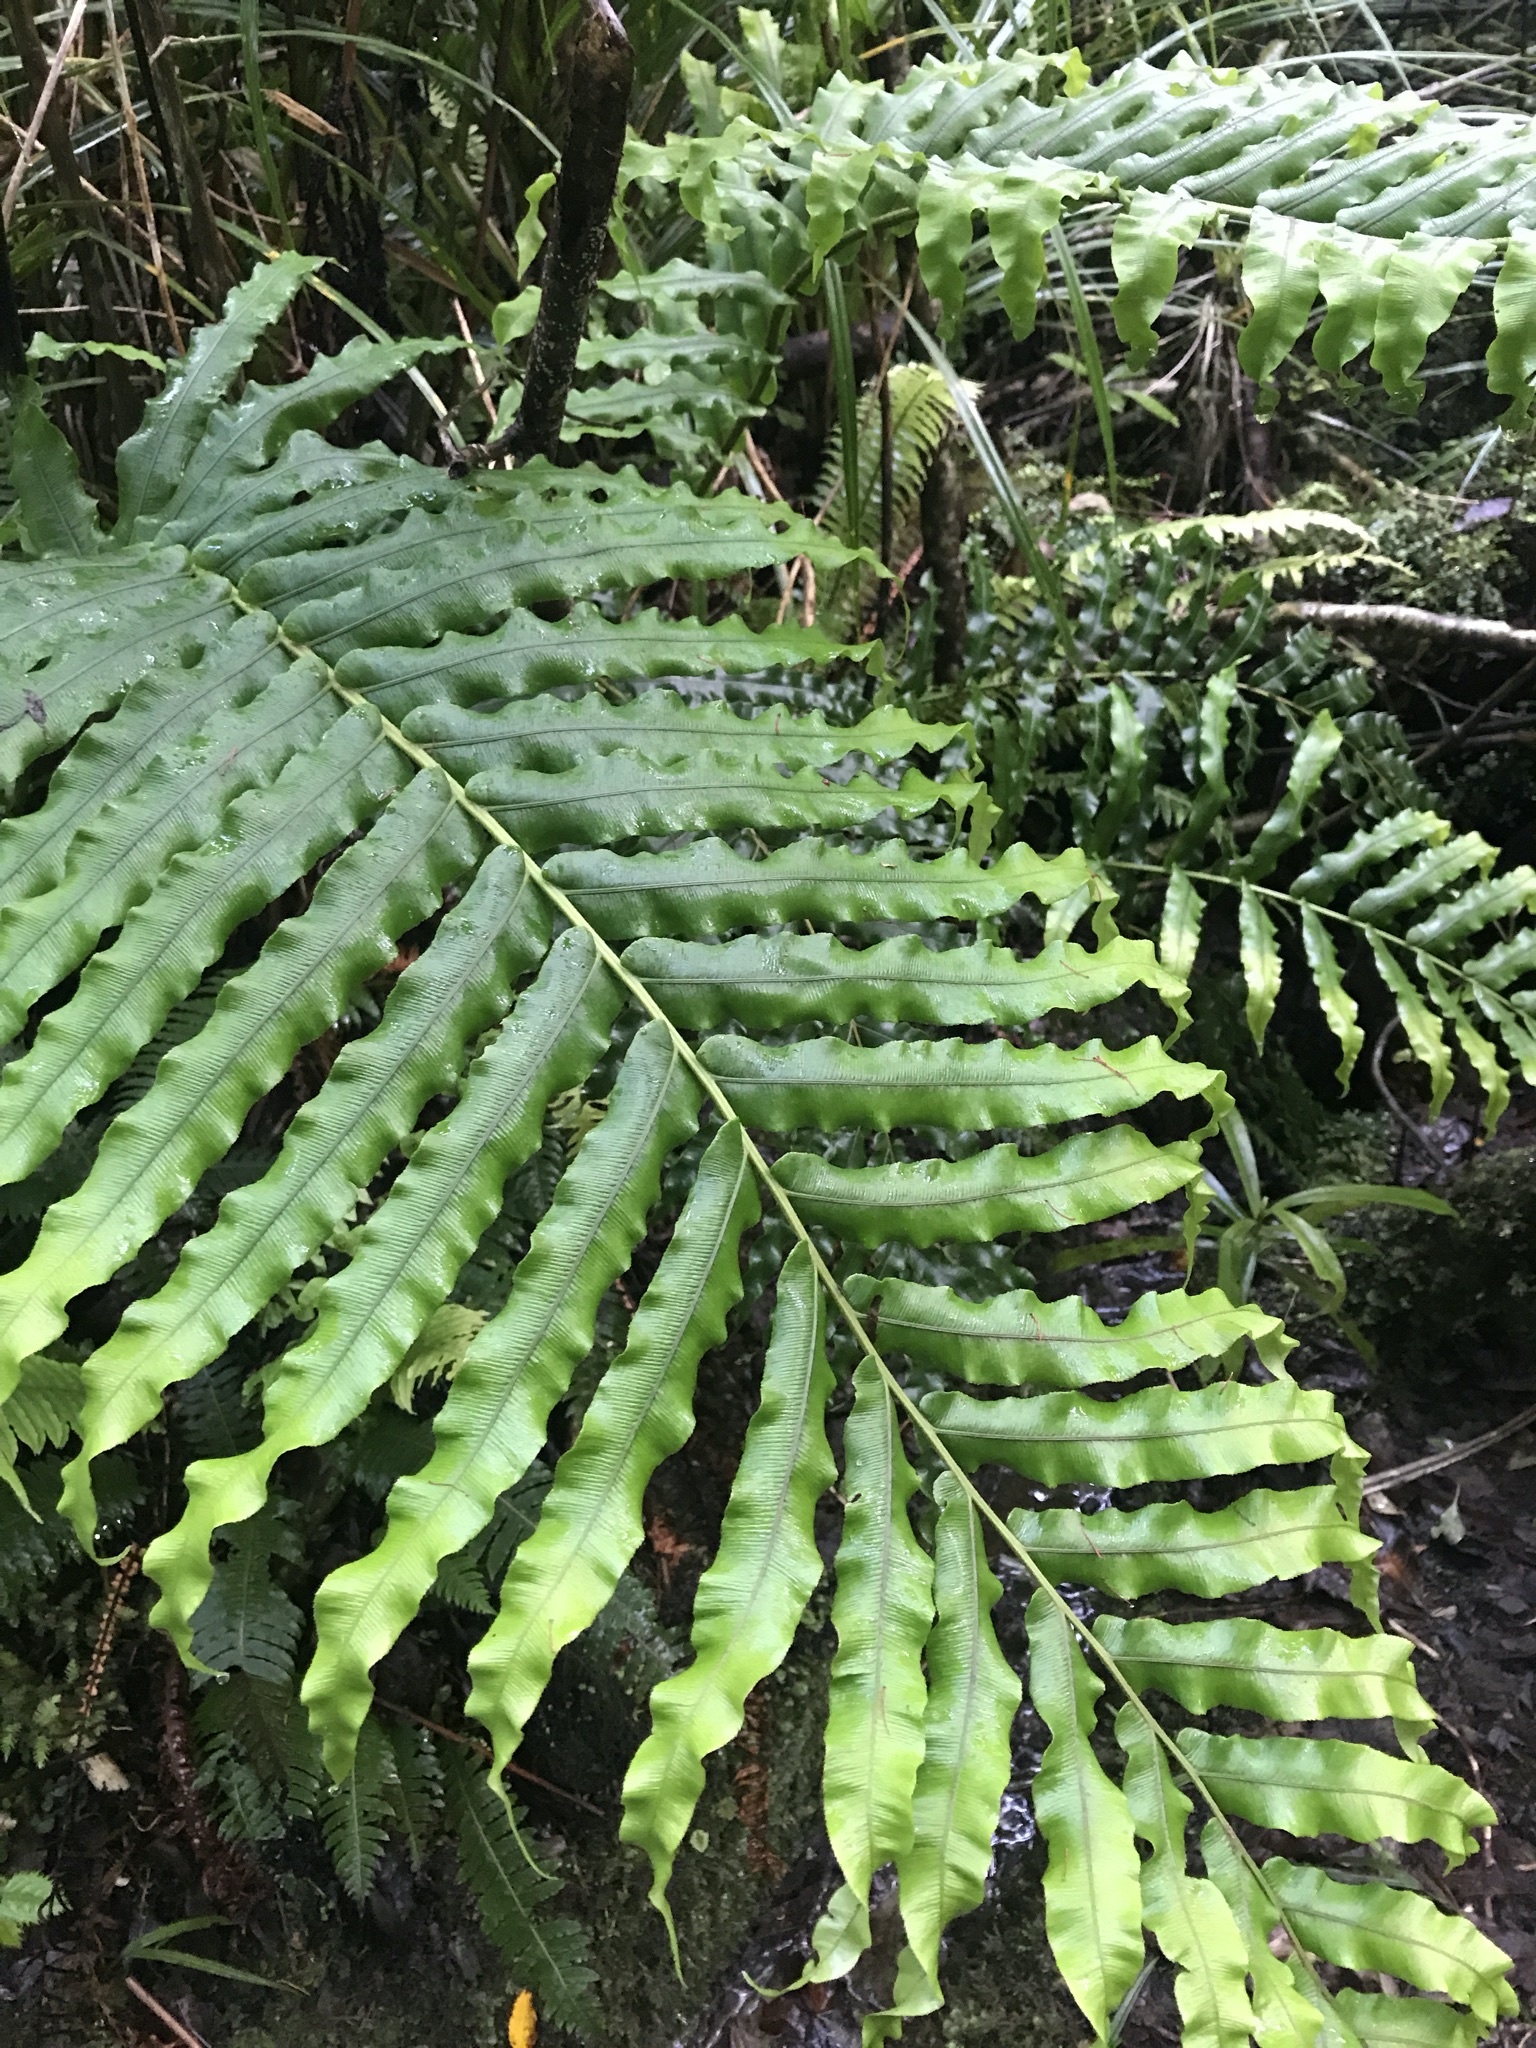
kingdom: Plantae
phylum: Tracheophyta
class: Polypodiopsida
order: Polypodiales
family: Blechnaceae
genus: Parablechnum
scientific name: Parablechnum novae-zelandiae
